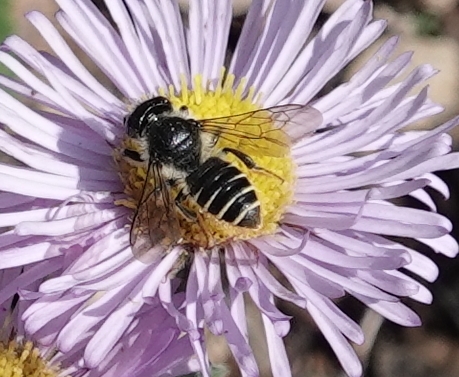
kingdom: Animalia
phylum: Arthropoda
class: Insecta
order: Hymenoptera
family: Megachilidae
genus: Megachile
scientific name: Megachile
